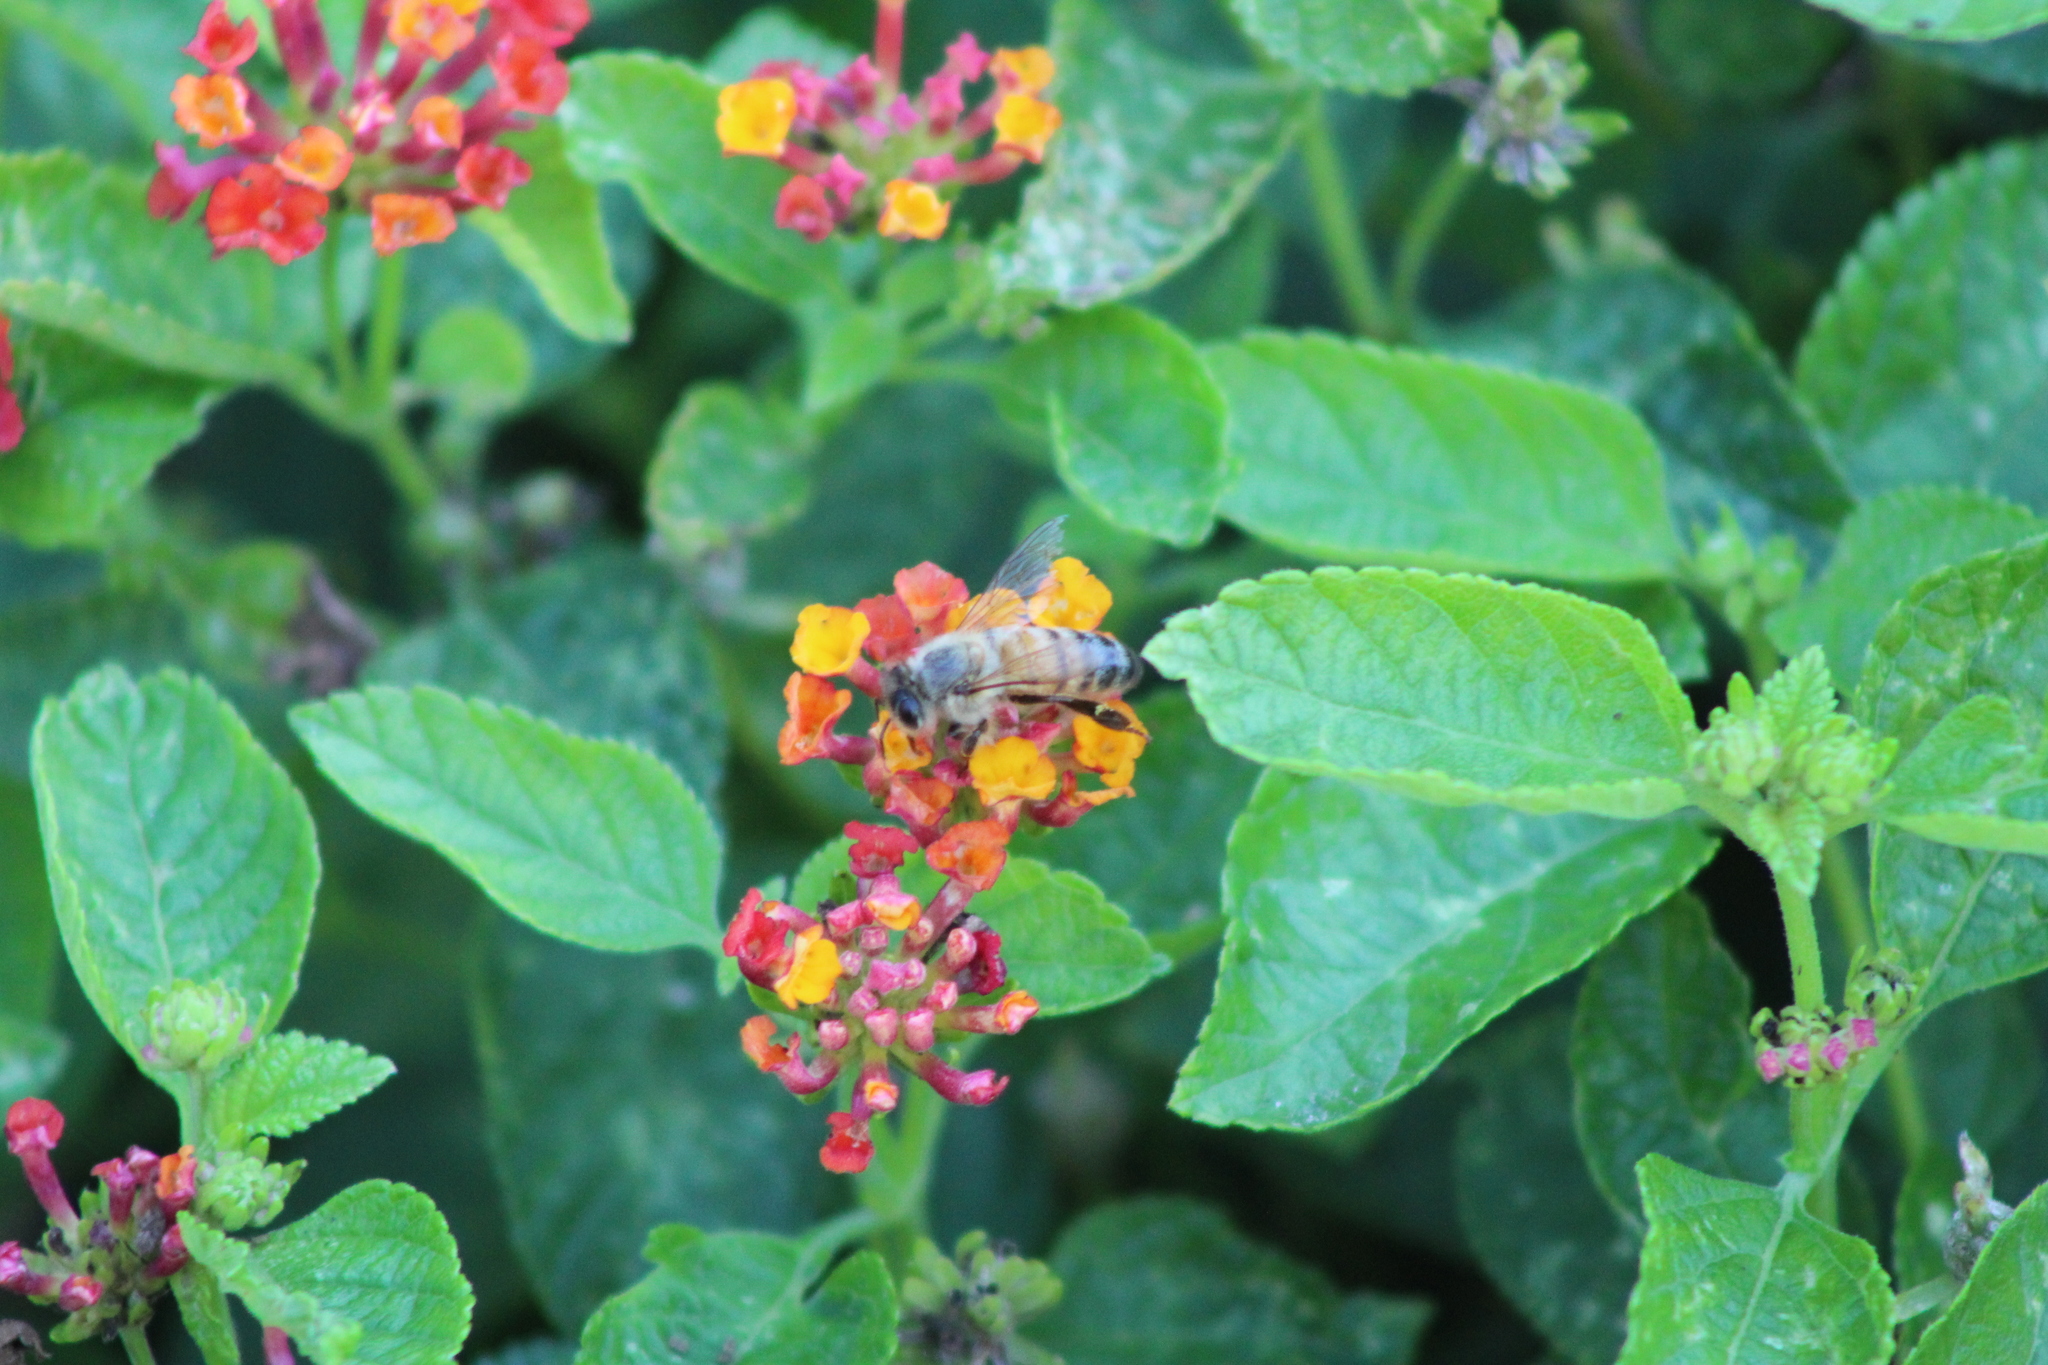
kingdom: Animalia
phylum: Arthropoda
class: Insecta
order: Hymenoptera
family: Apidae
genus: Apis
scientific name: Apis mellifera
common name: Honey bee
